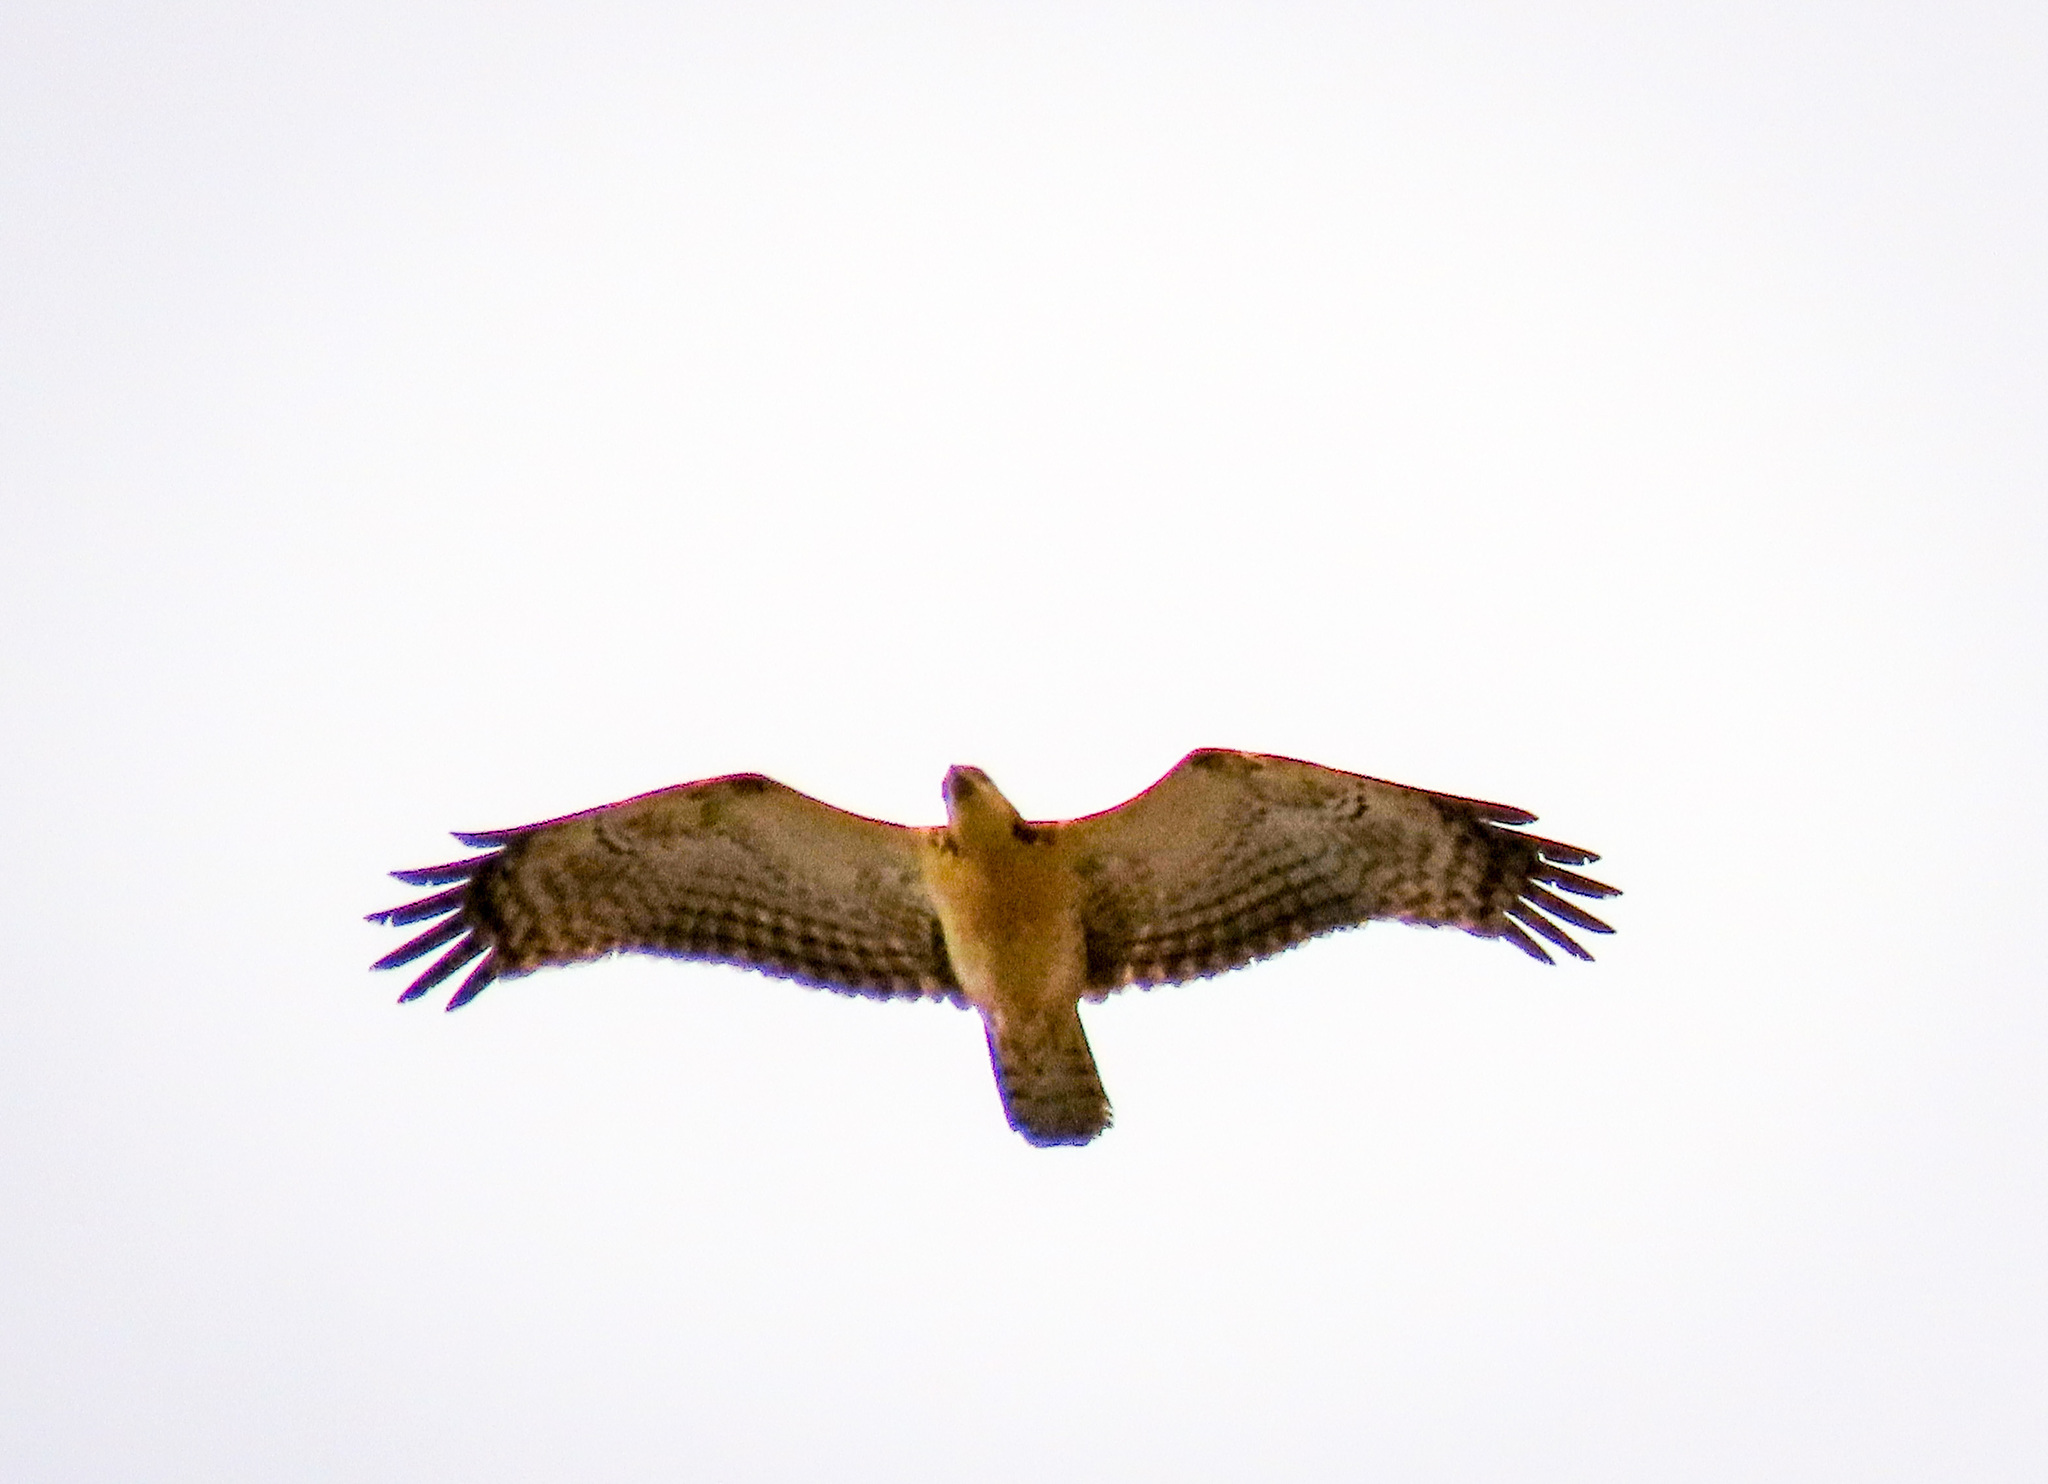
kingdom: Animalia
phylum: Chordata
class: Aves
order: Accipitriformes
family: Accipitridae
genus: Pernis
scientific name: Pernis ptilorhynchus
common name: Crested honey buzzard
